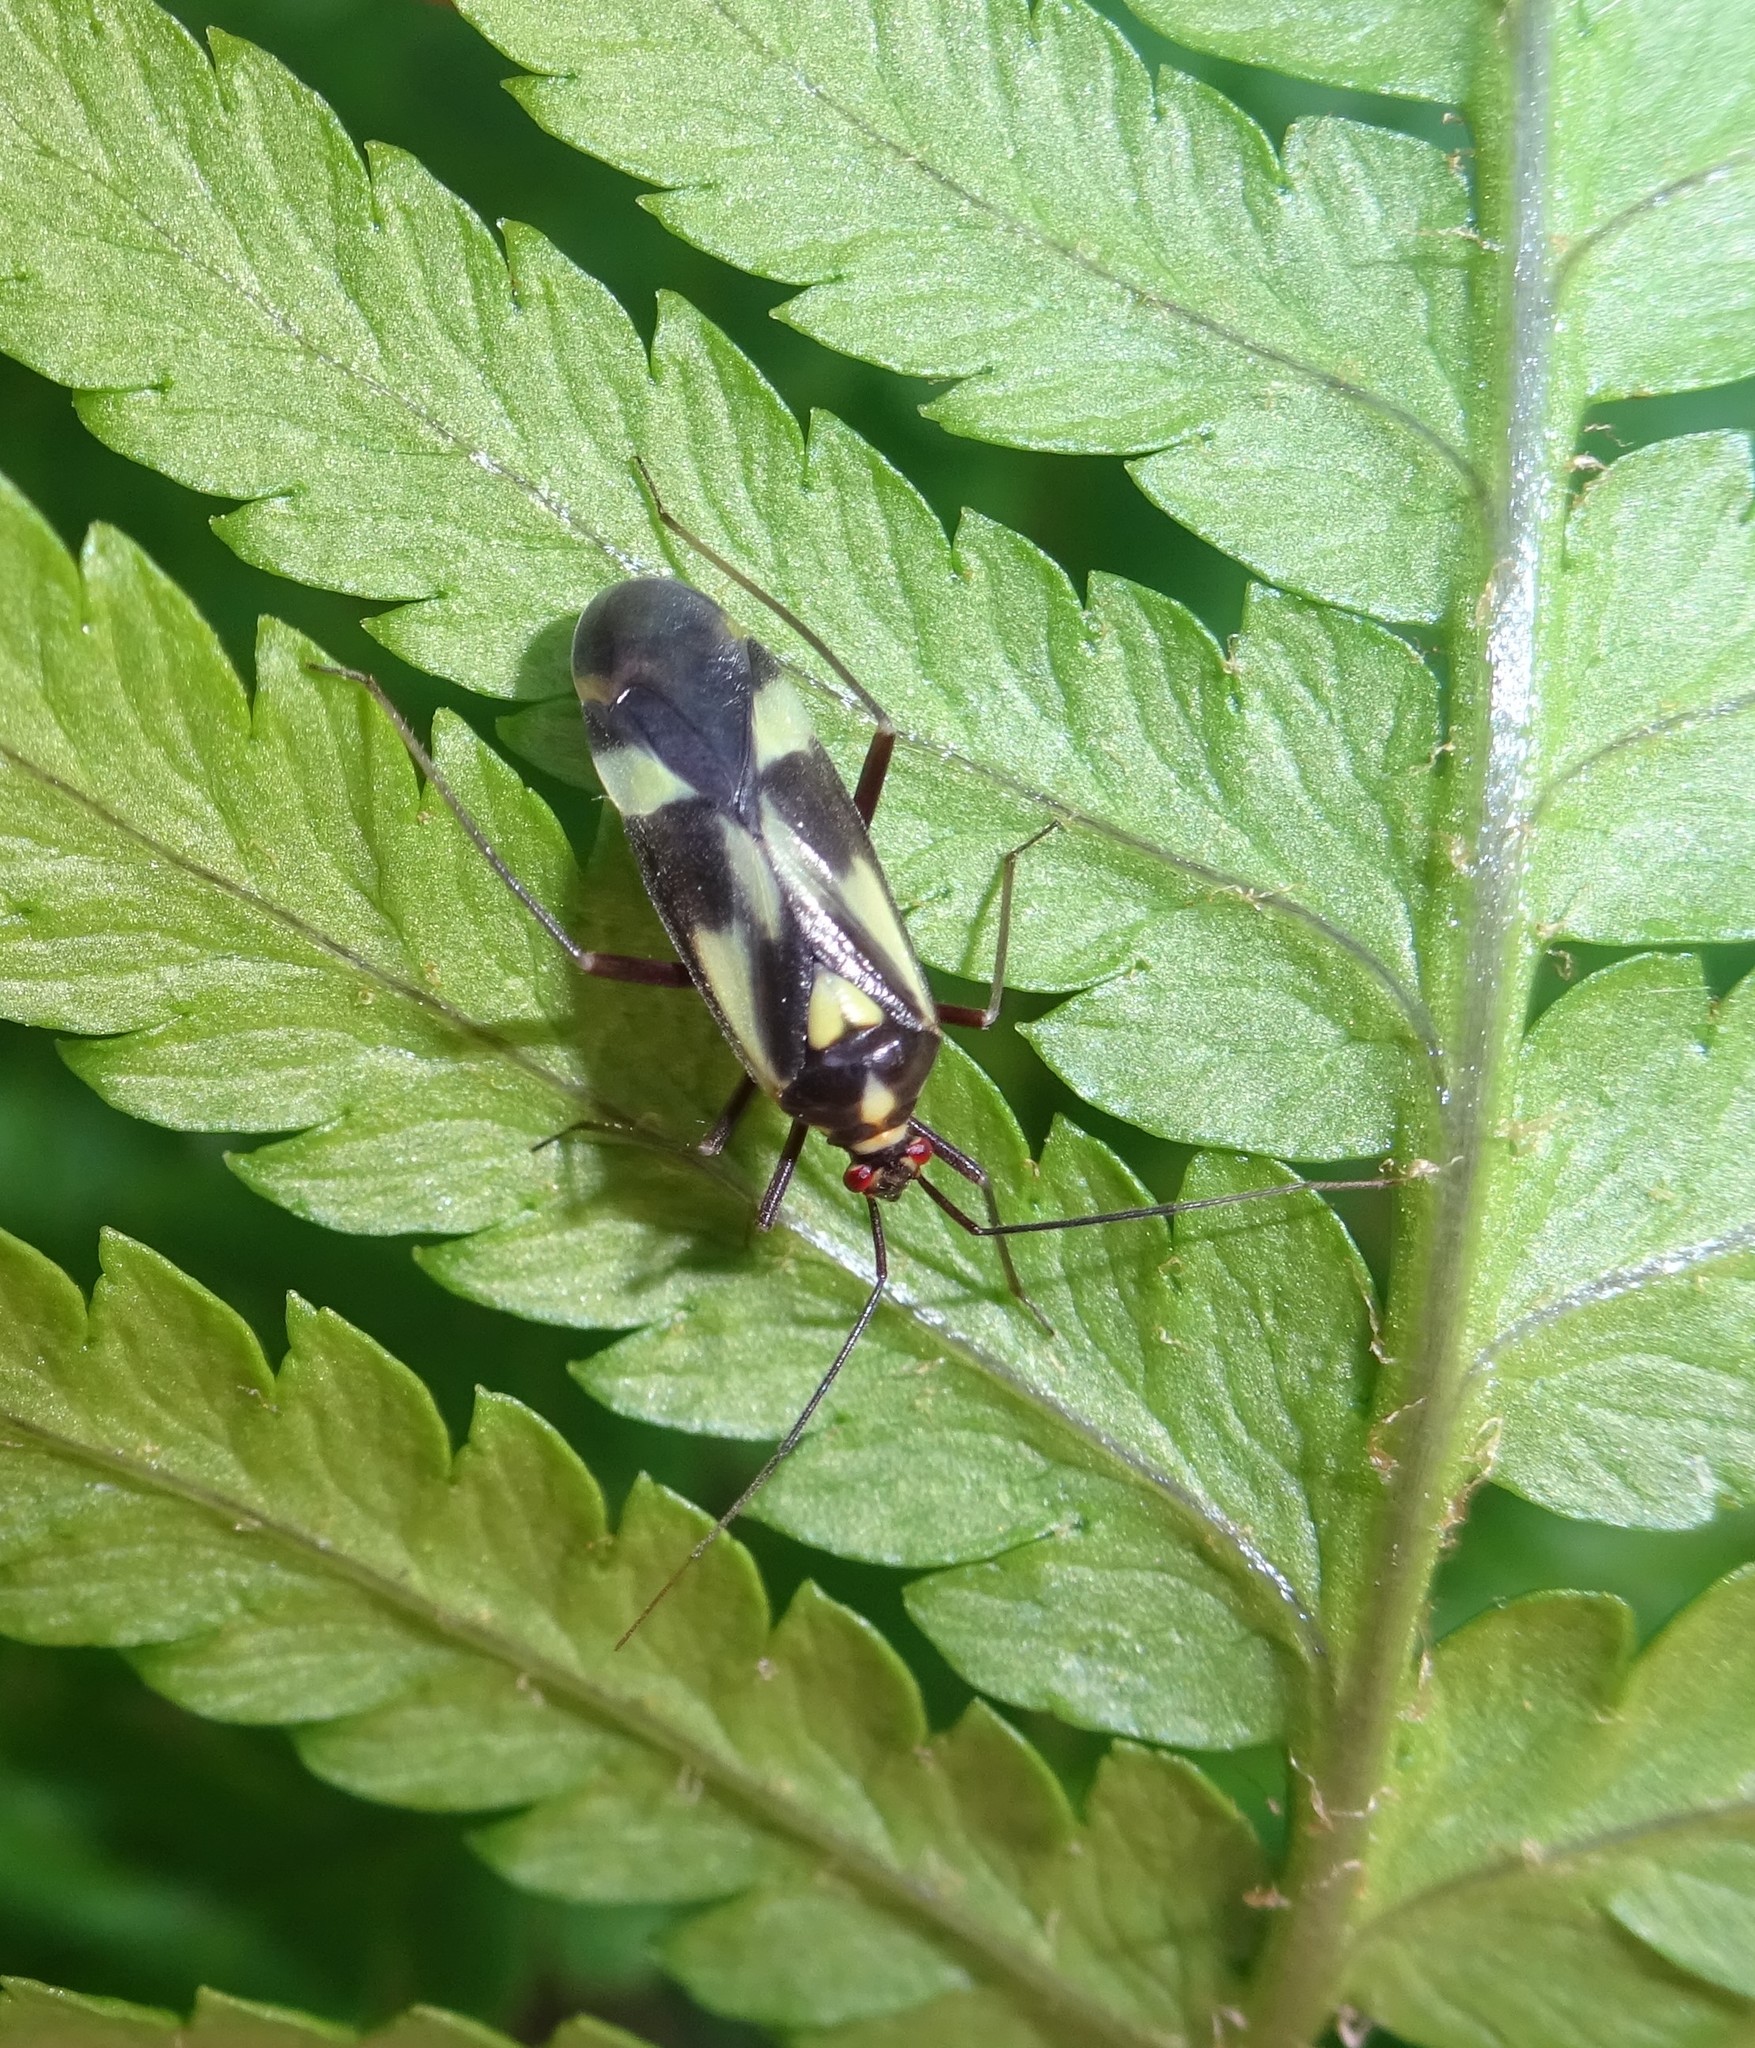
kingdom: Animalia
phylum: Arthropoda
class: Insecta
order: Hemiptera
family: Miridae
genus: Grypocoris
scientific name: Grypocoris sexguttatus
